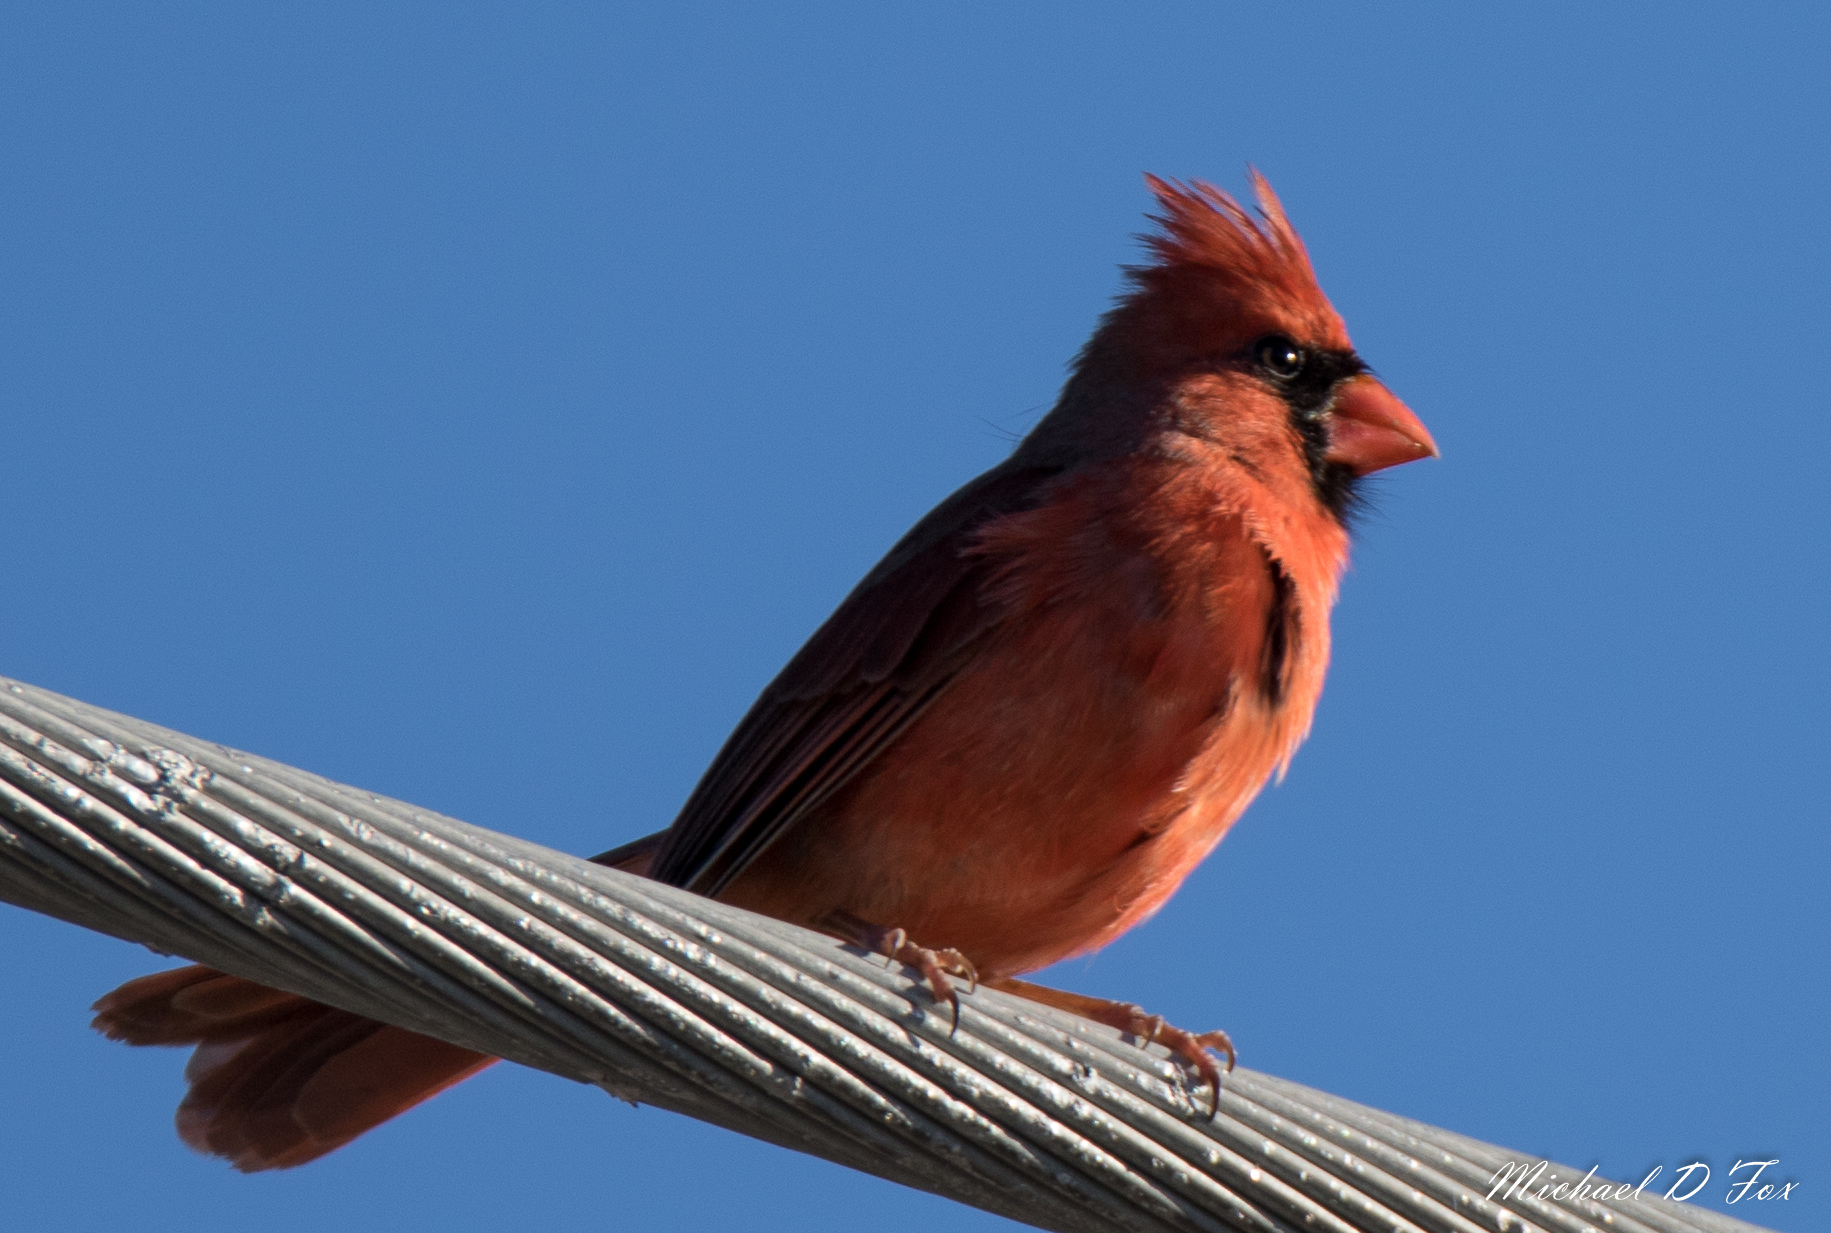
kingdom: Animalia
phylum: Chordata
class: Aves
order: Passeriformes
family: Cardinalidae
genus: Cardinalis
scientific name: Cardinalis cardinalis
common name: Northern cardinal
